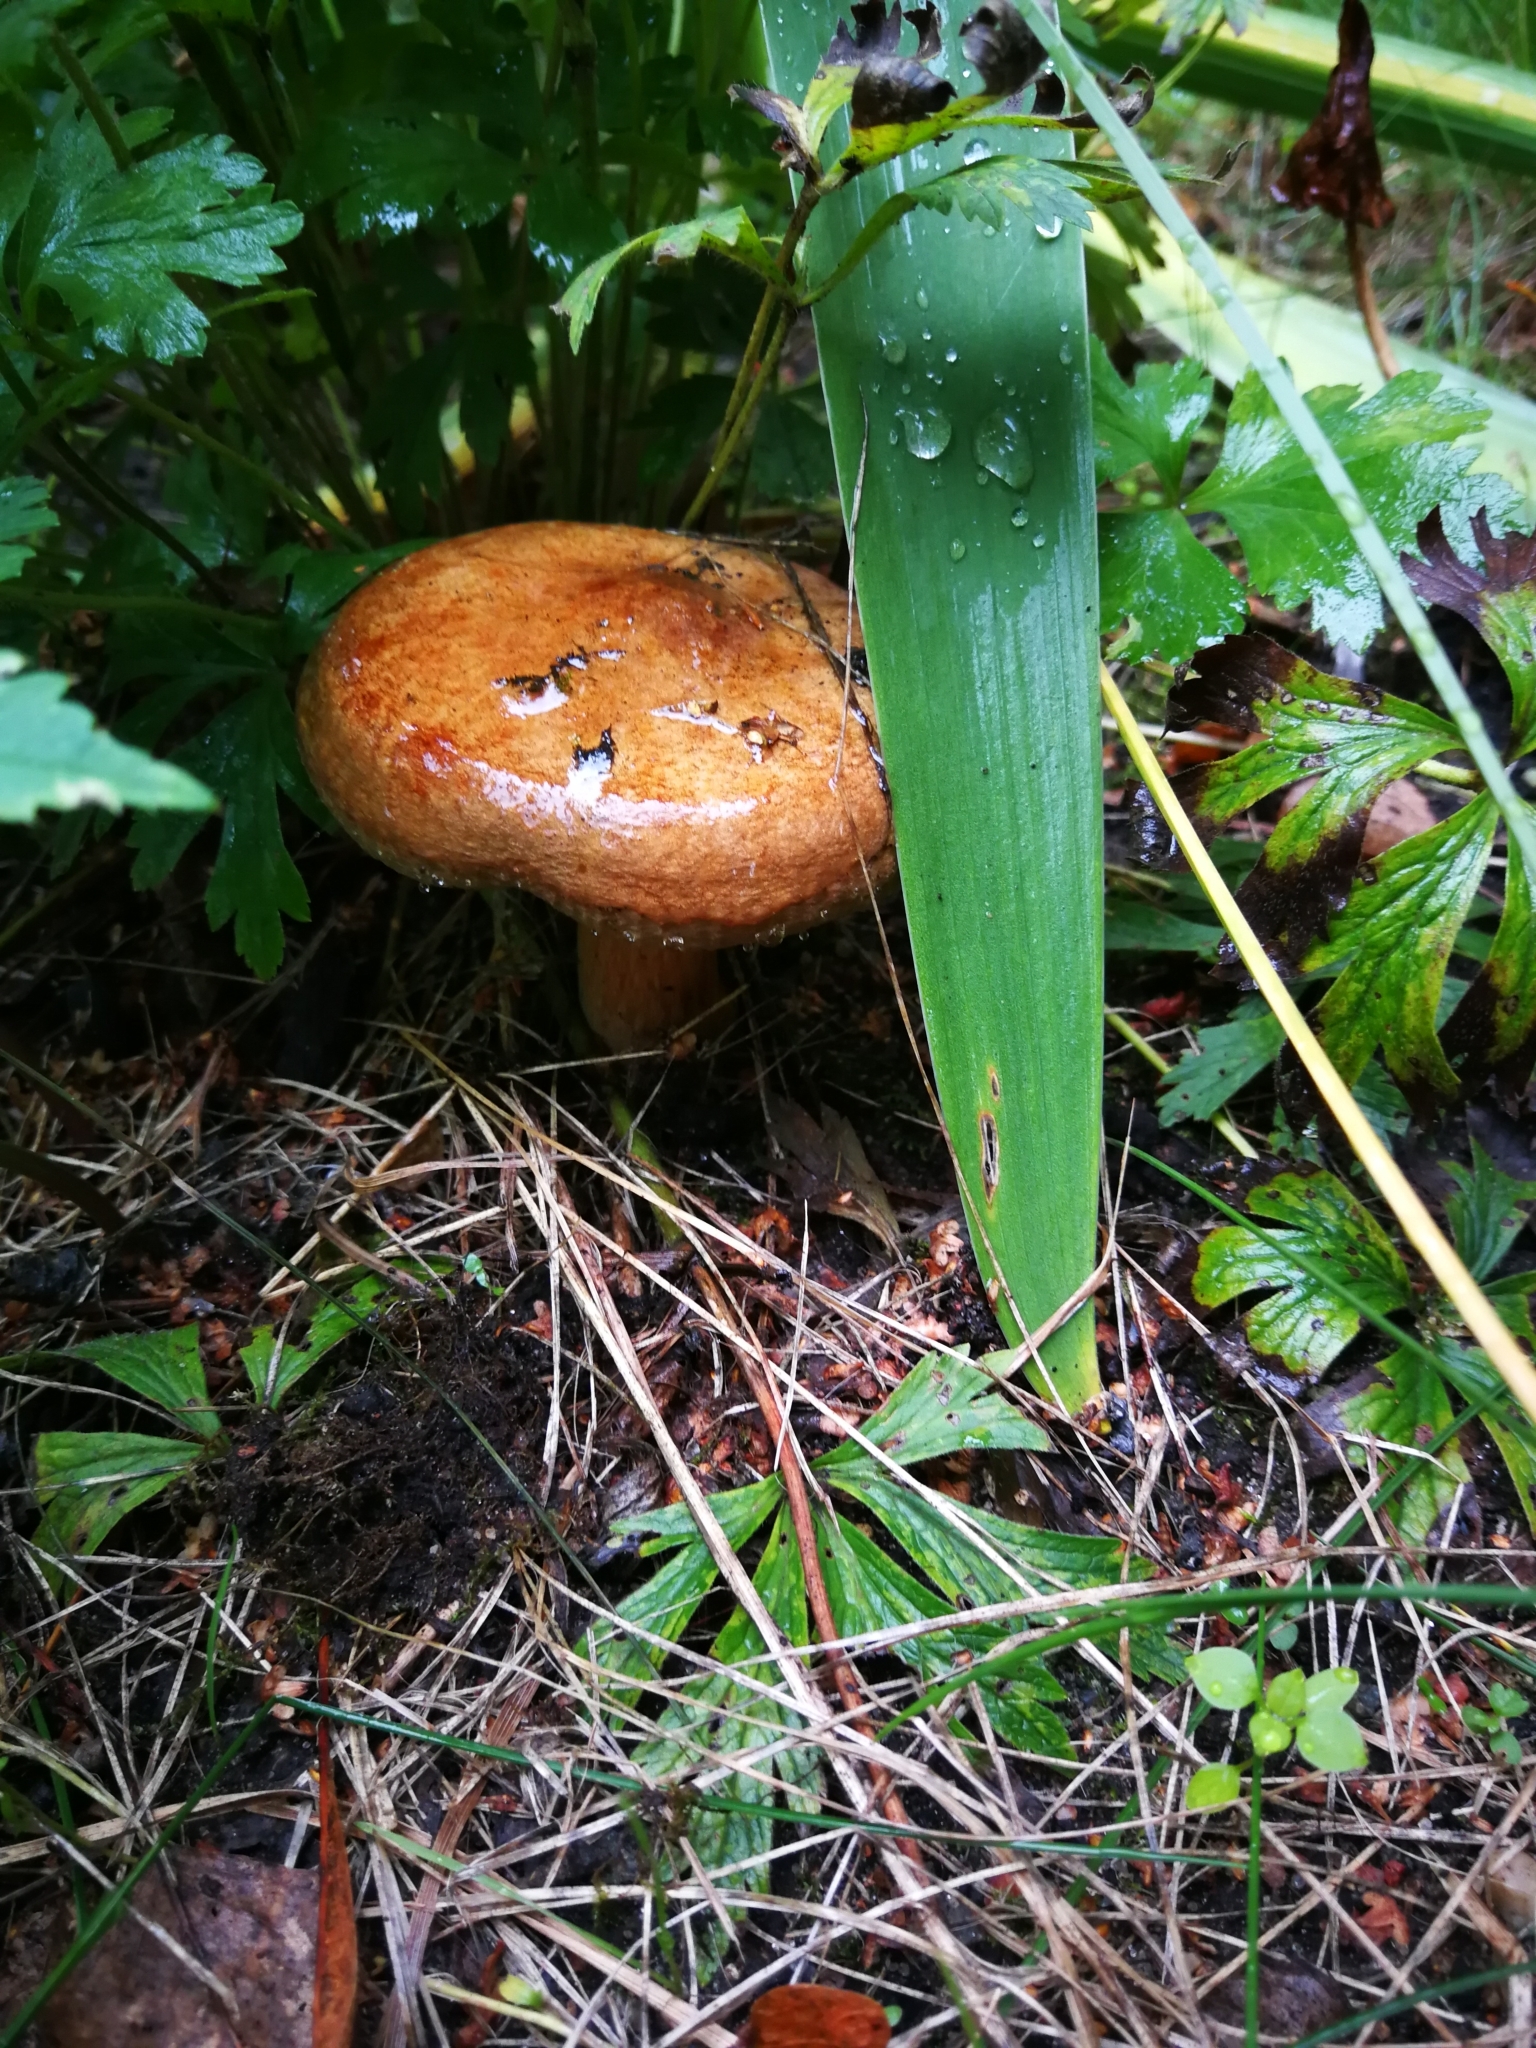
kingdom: Fungi
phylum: Basidiomycota
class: Agaricomycetes
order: Boletales
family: Paxillaceae
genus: Paxillus
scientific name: Paxillus involutus
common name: Brown roll rim
